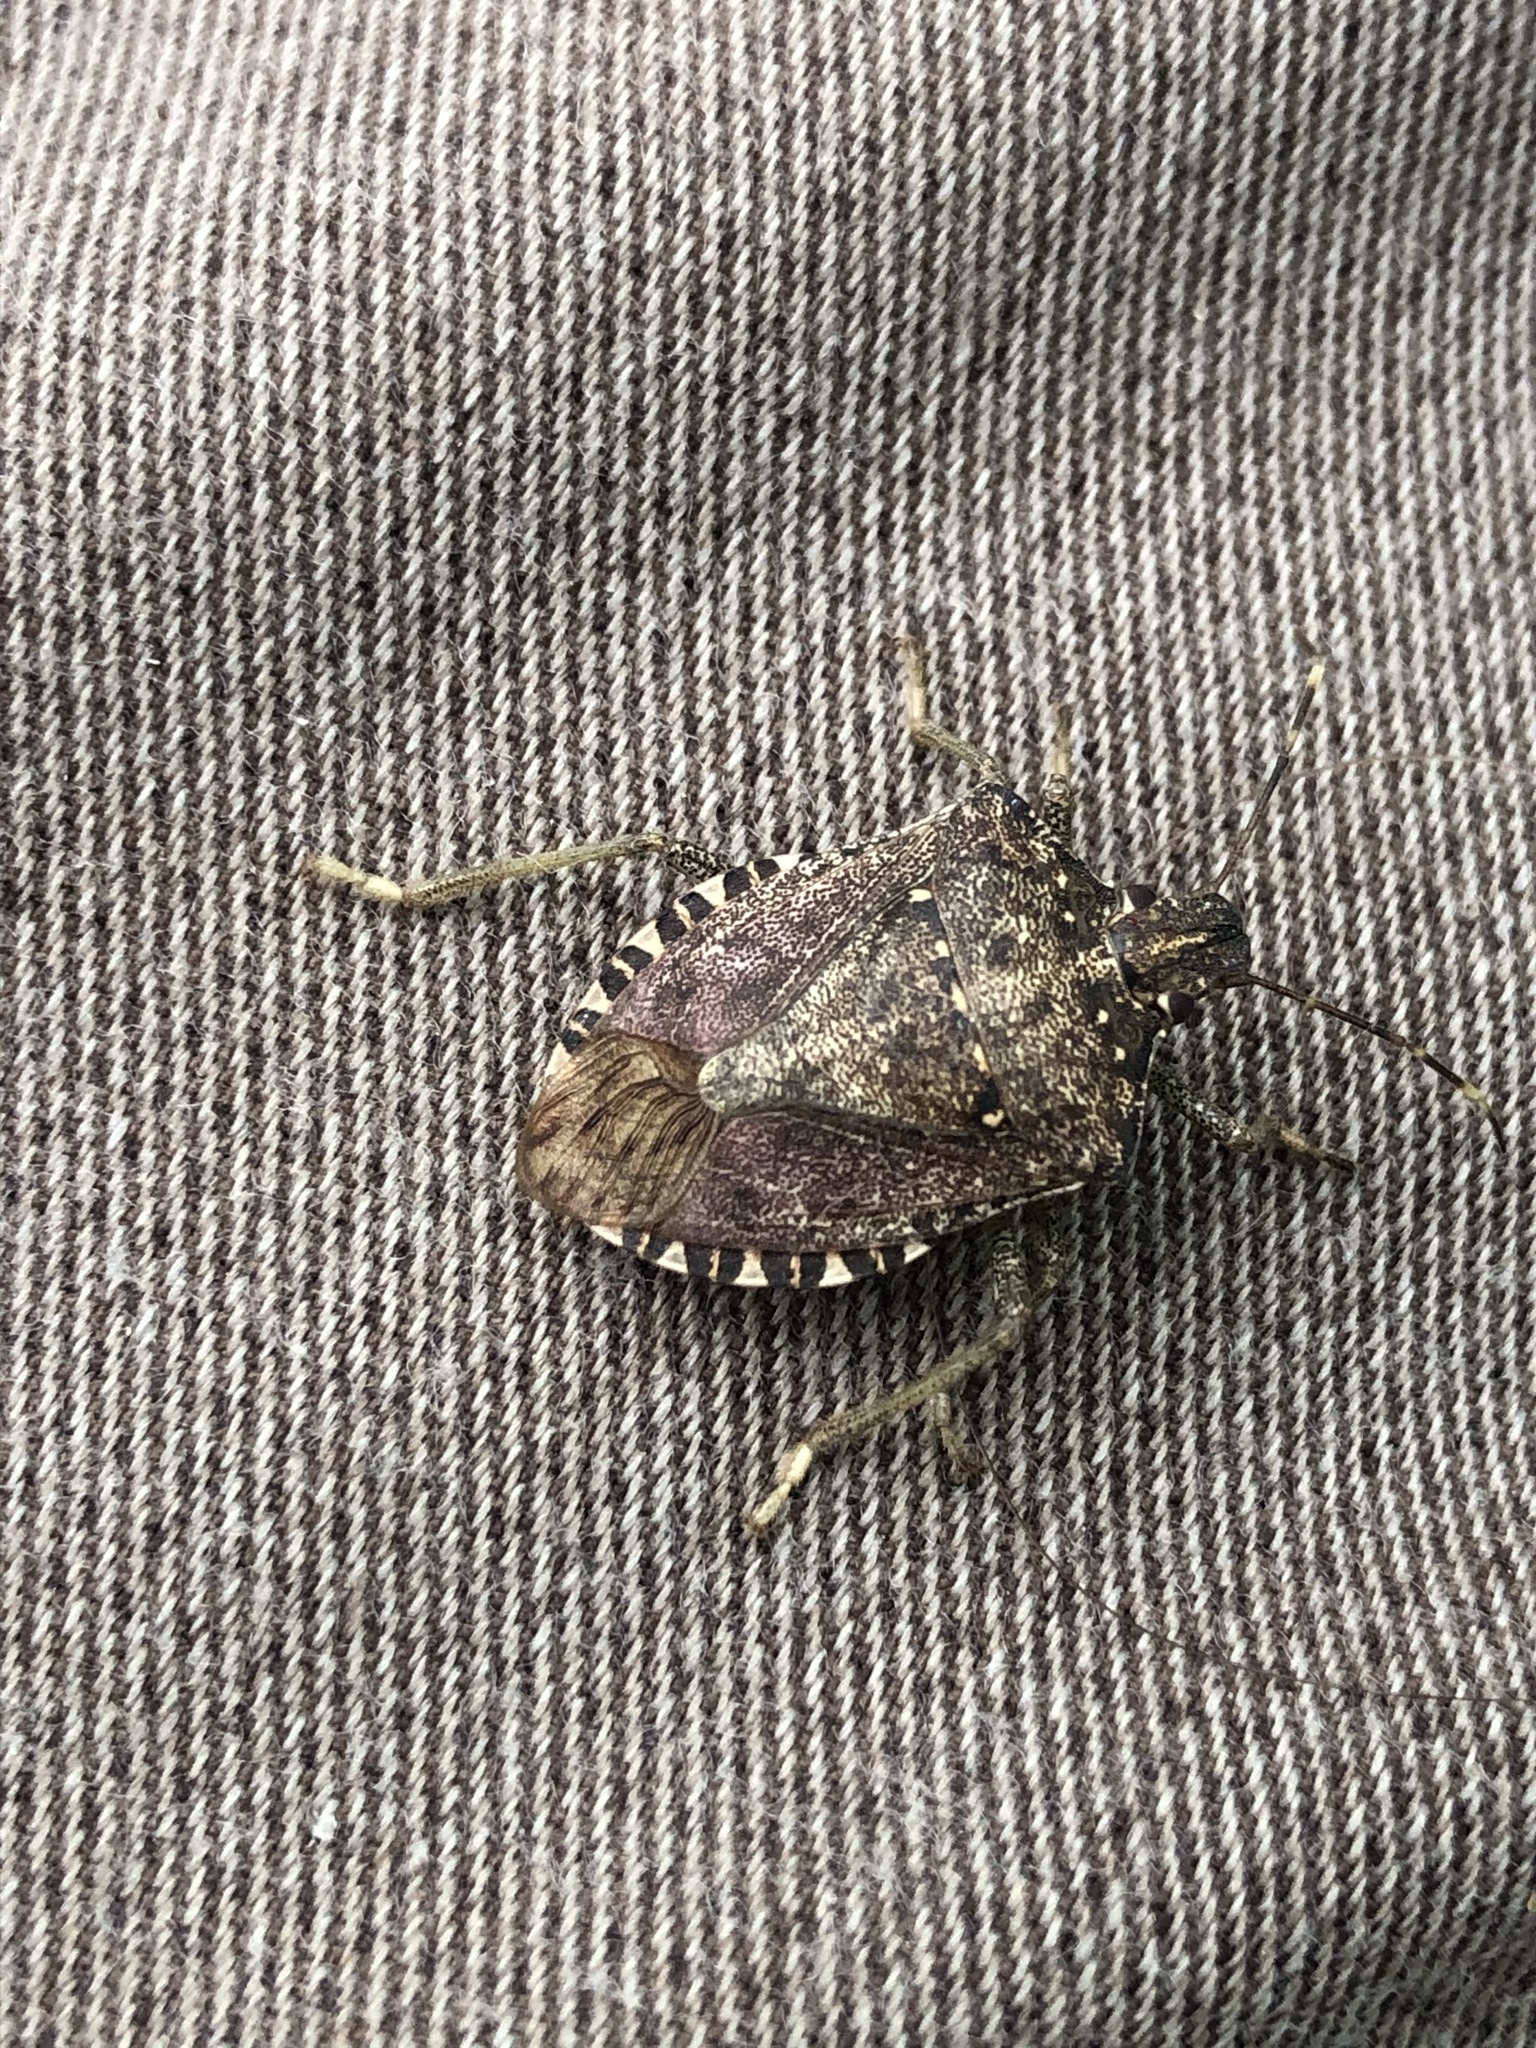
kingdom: Animalia
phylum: Arthropoda
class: Insecta
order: Hemiptera
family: Pentatomidae
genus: Halyomorpha
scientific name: Halyomorpha halys
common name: Brown marmorated stink bug
